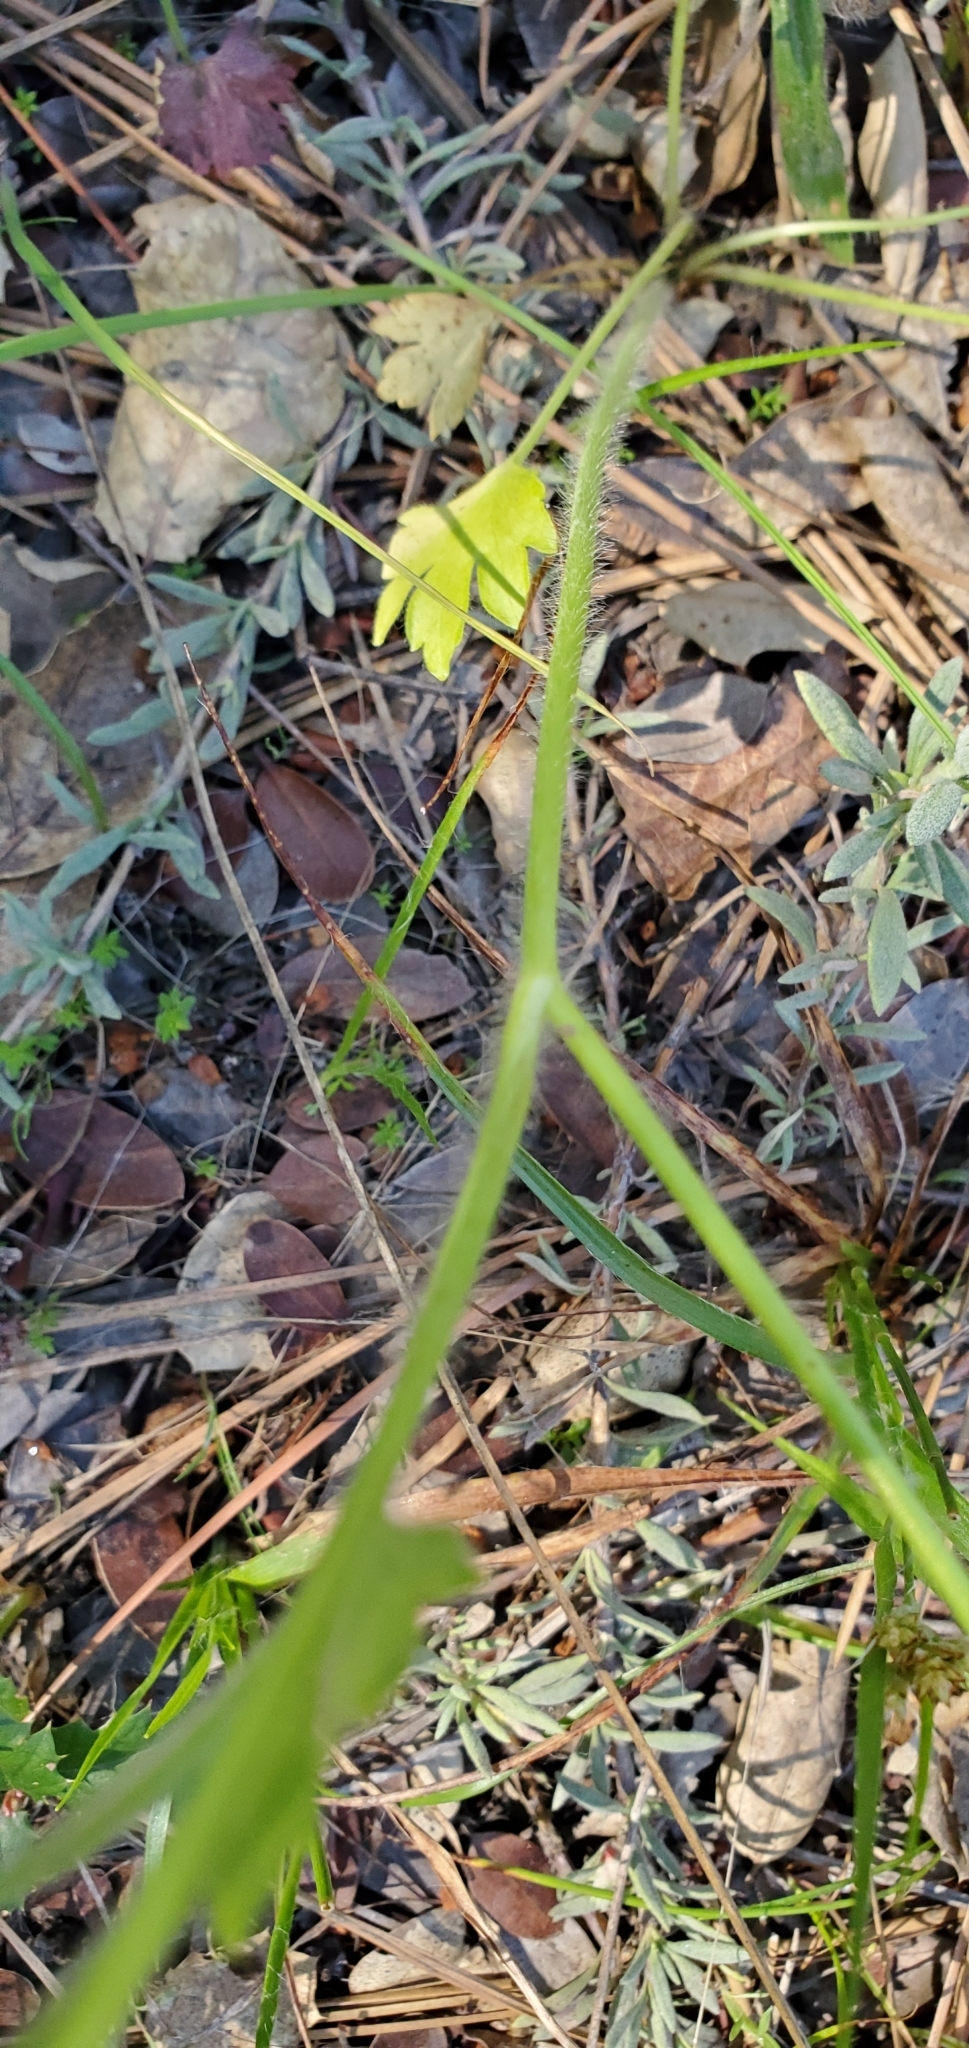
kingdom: Plantae
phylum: Tracheophyta
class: Magnoliopsida
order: Ranunculales
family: Ranunculaceae
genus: Ranunculus
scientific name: Ranunculus californicus
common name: California buttercup
